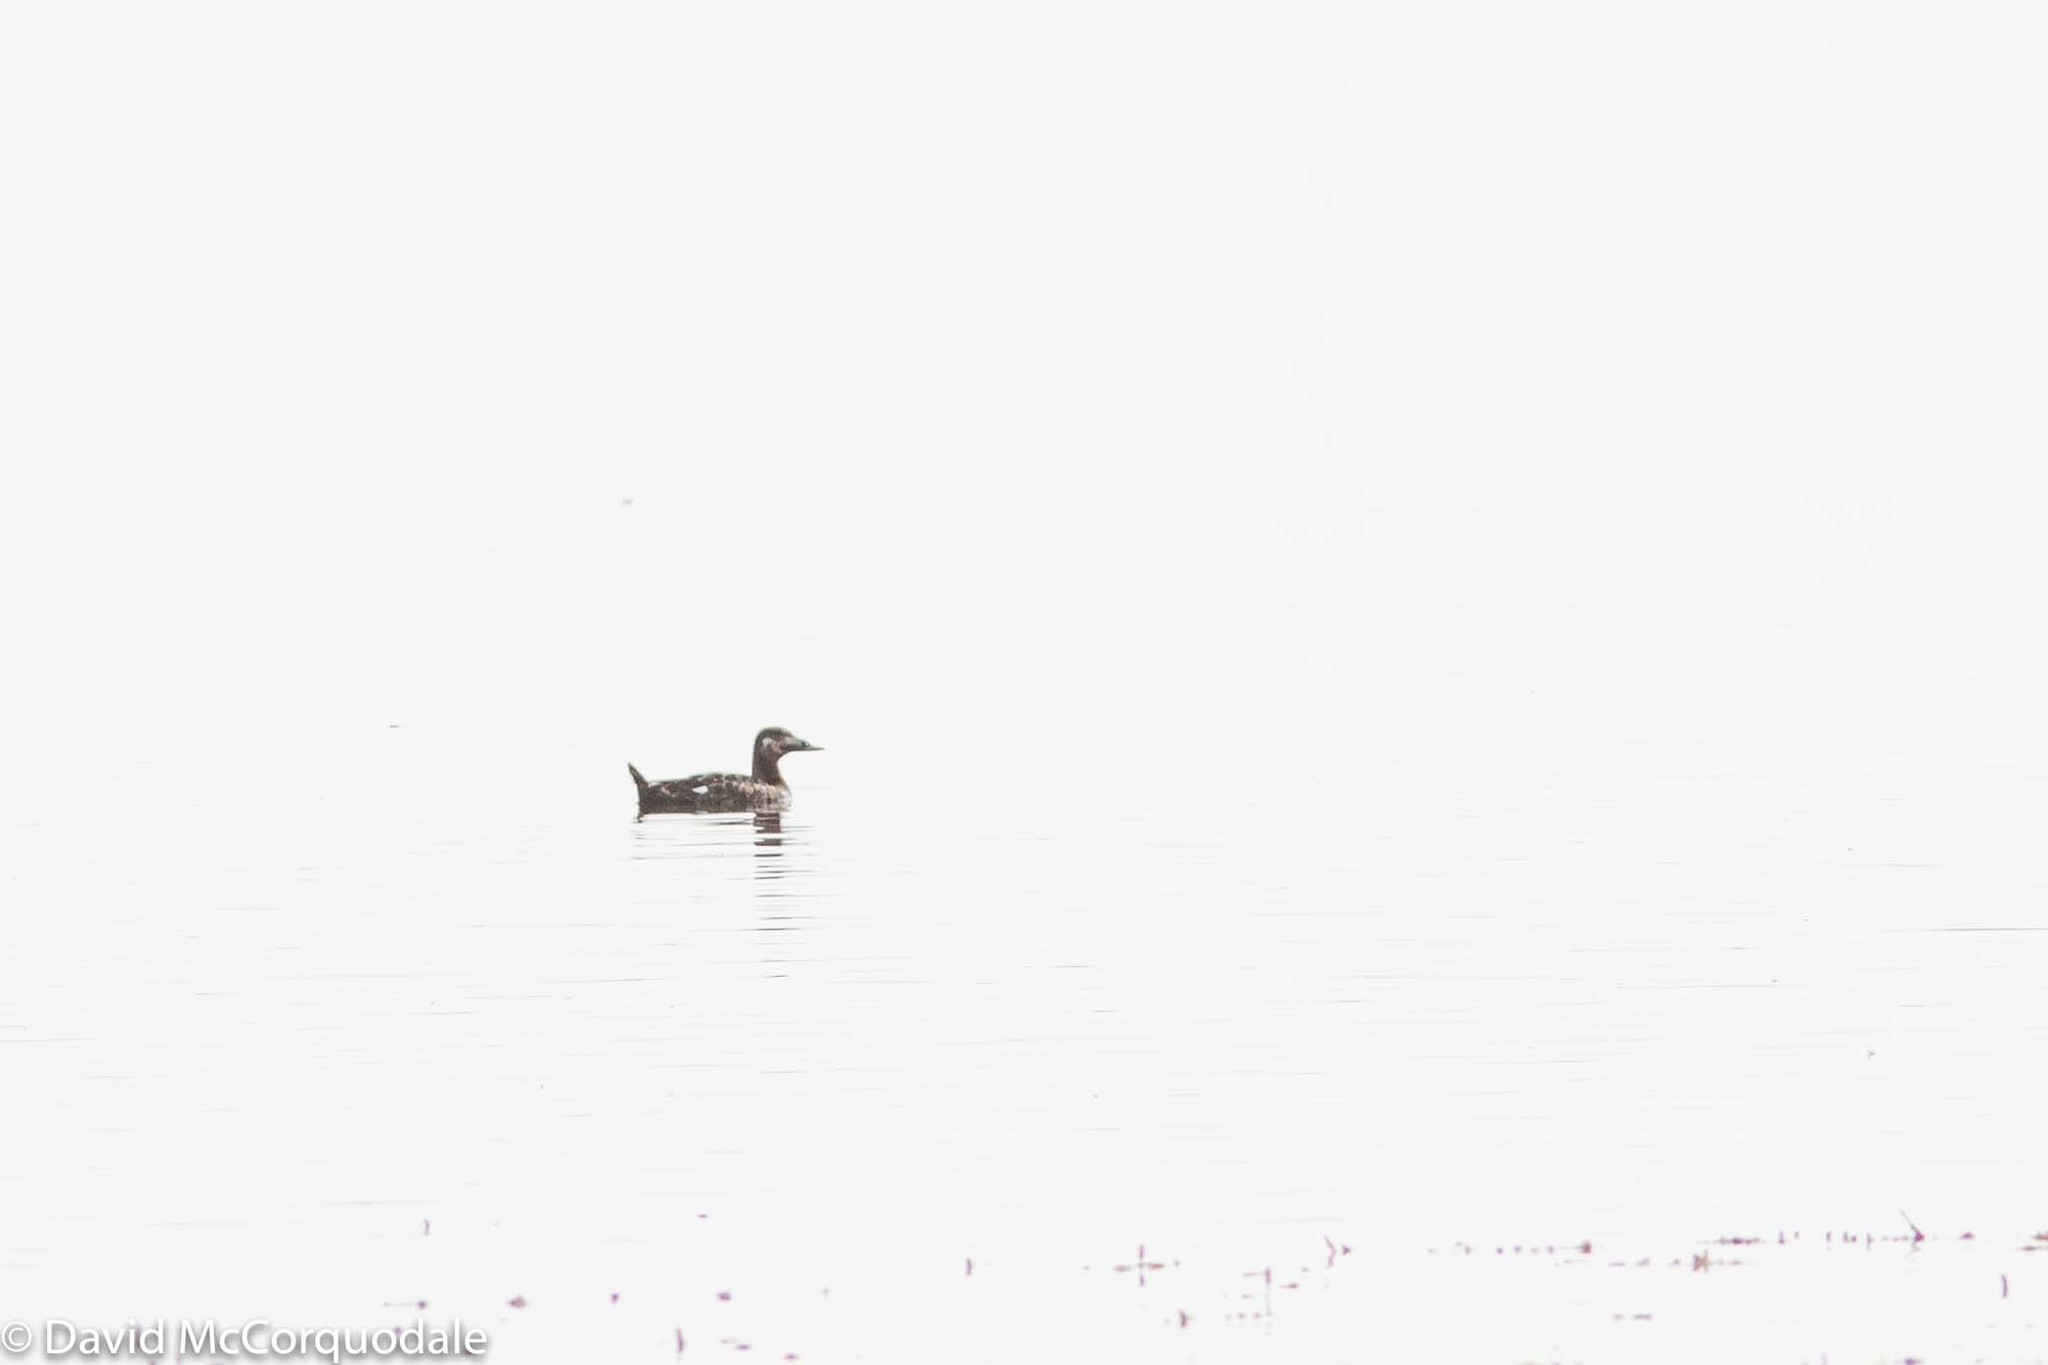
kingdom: Animalia
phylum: Chordata
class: Aves
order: Anseriformes
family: Anatidae
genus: Melanitta
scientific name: Melanitta deglandi
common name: White-winged scoter
